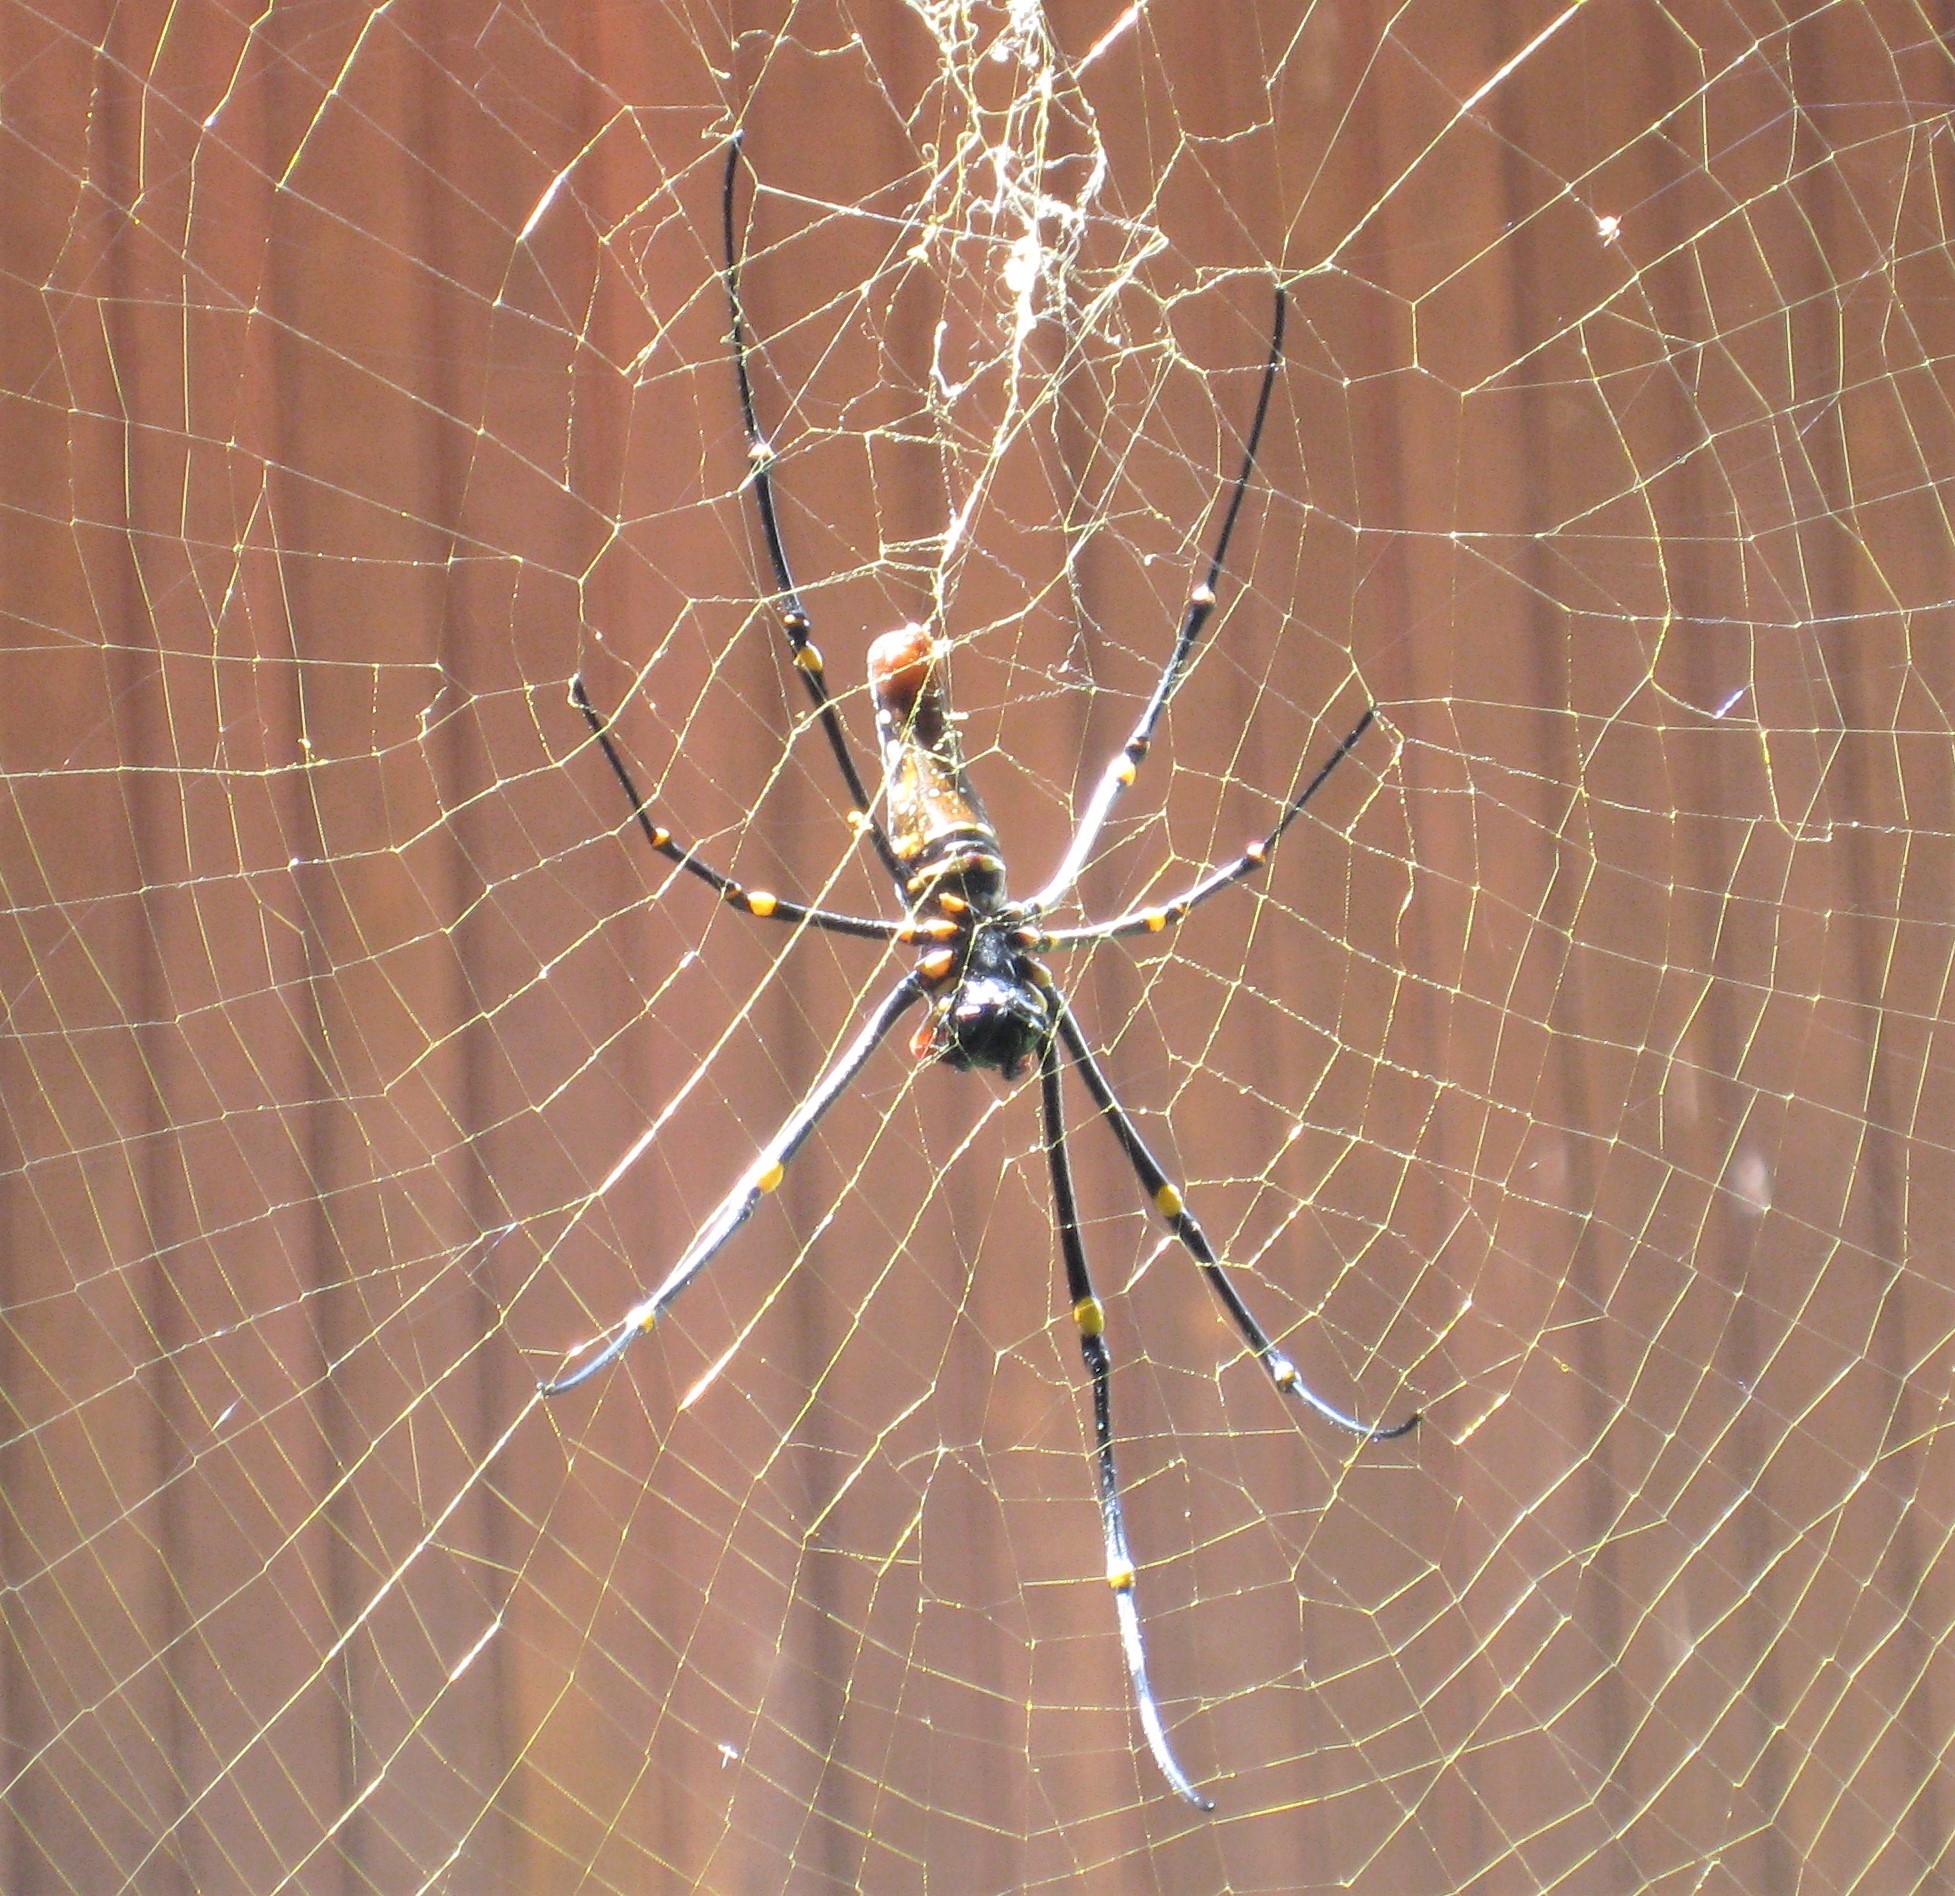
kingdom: Animalia
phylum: Arthropoda
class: Arachnida
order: Araneae
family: Araneidae
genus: Nephila
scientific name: Nephila pilipes
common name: Giant golden orb weaver
